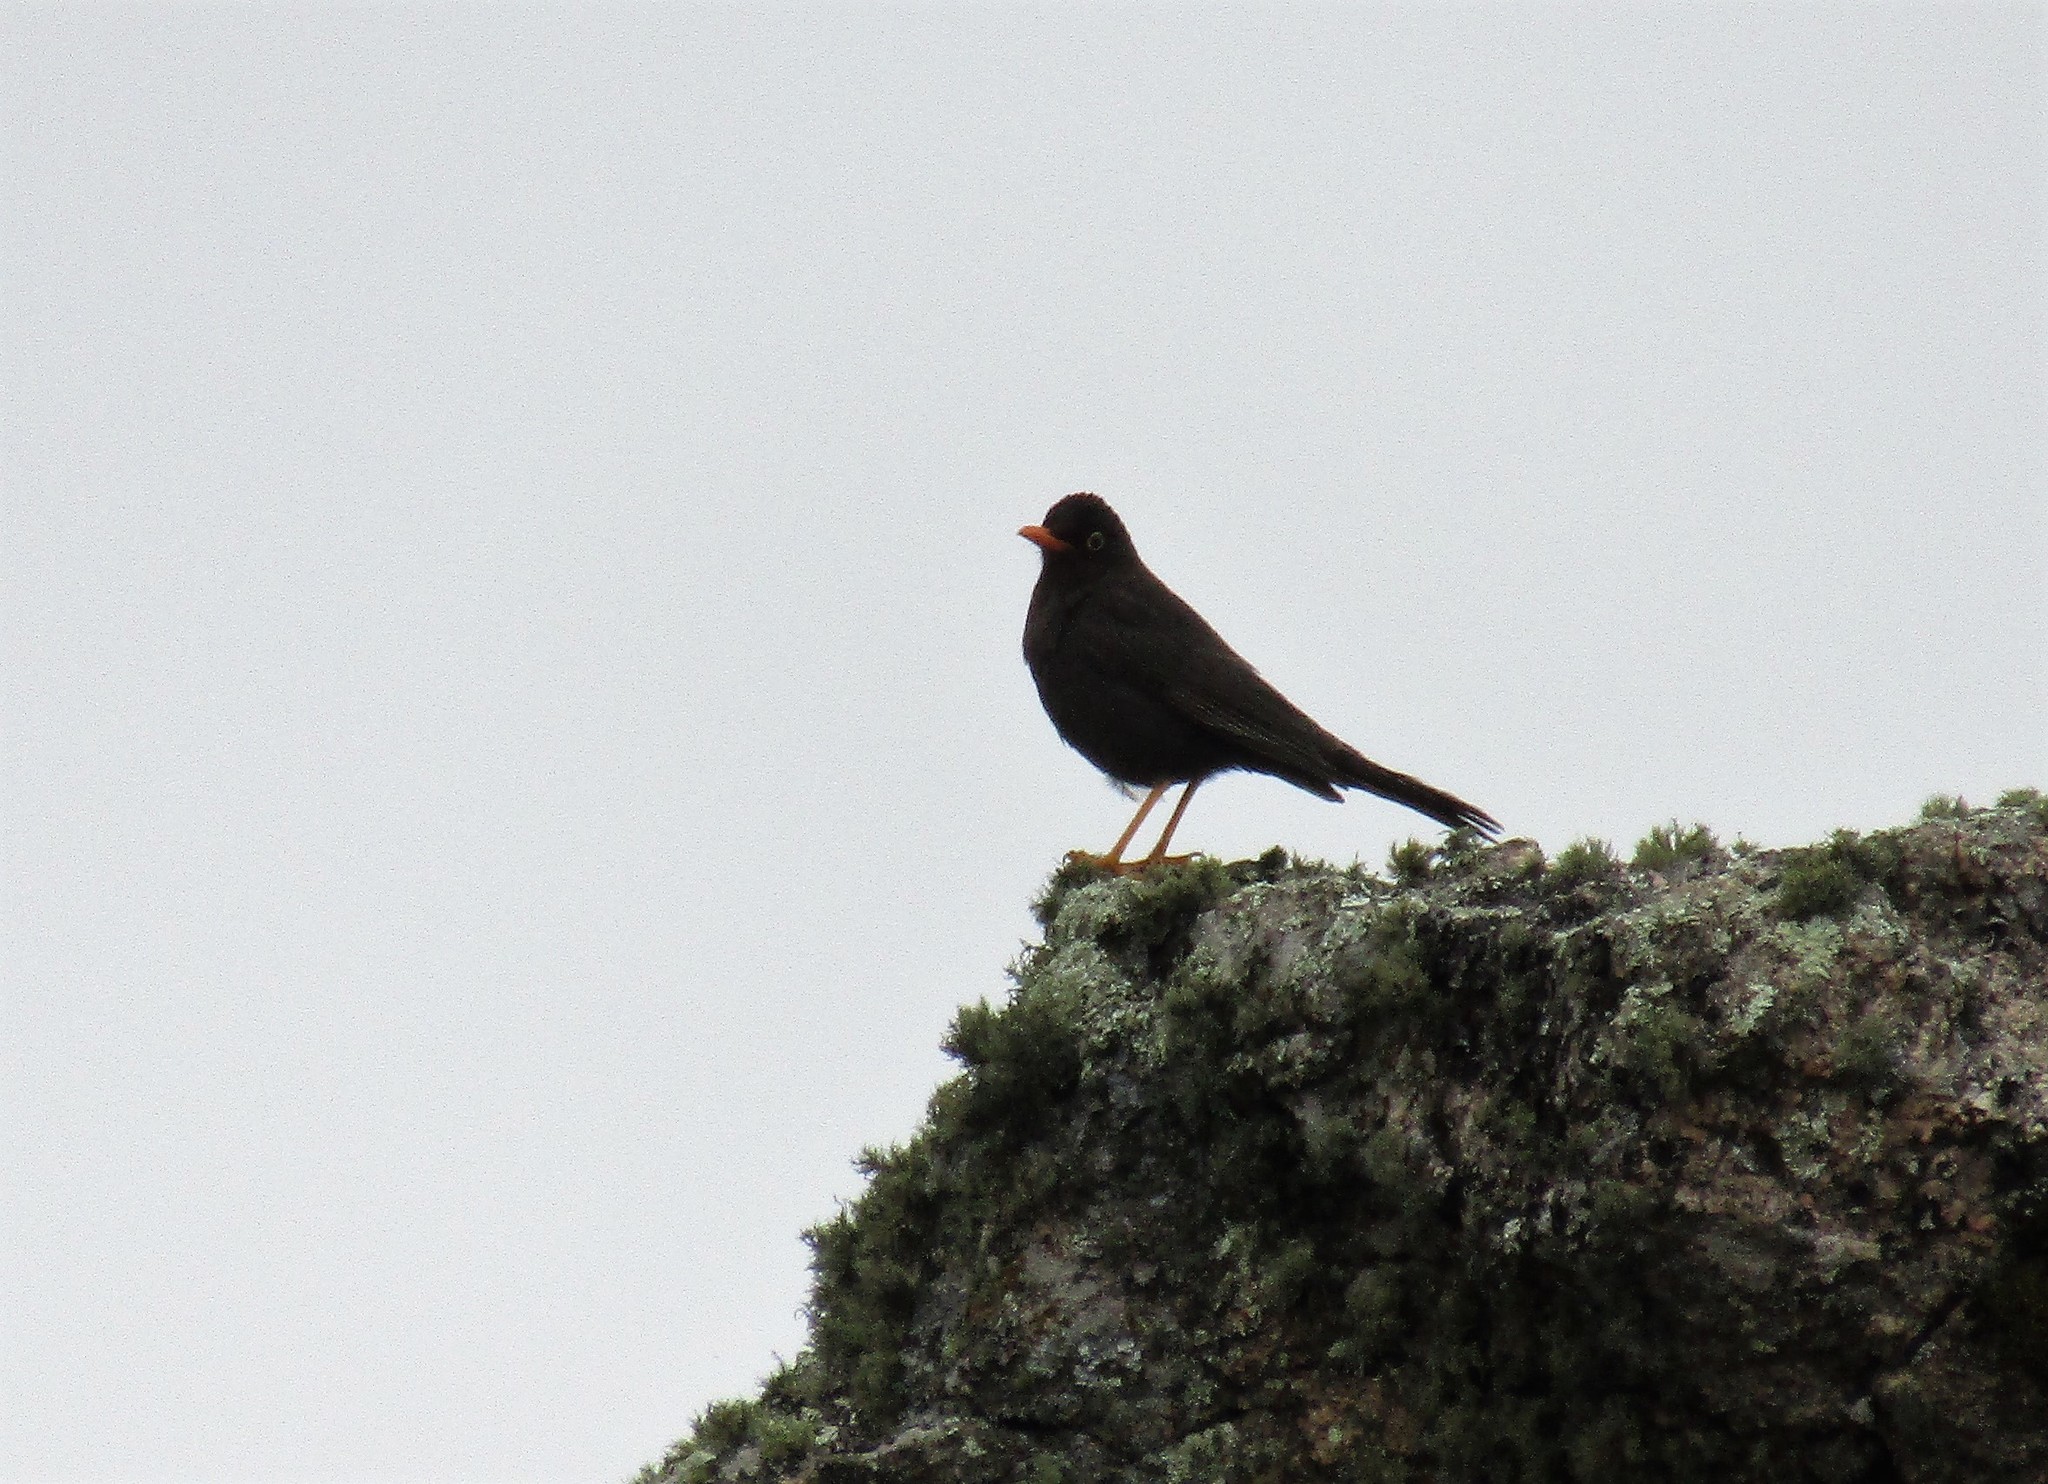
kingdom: Animalia
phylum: Chordata
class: Aves
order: Passeriformes
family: Turdidae
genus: Turdus
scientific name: Turdus chiguanco
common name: Chiguanco thrush
